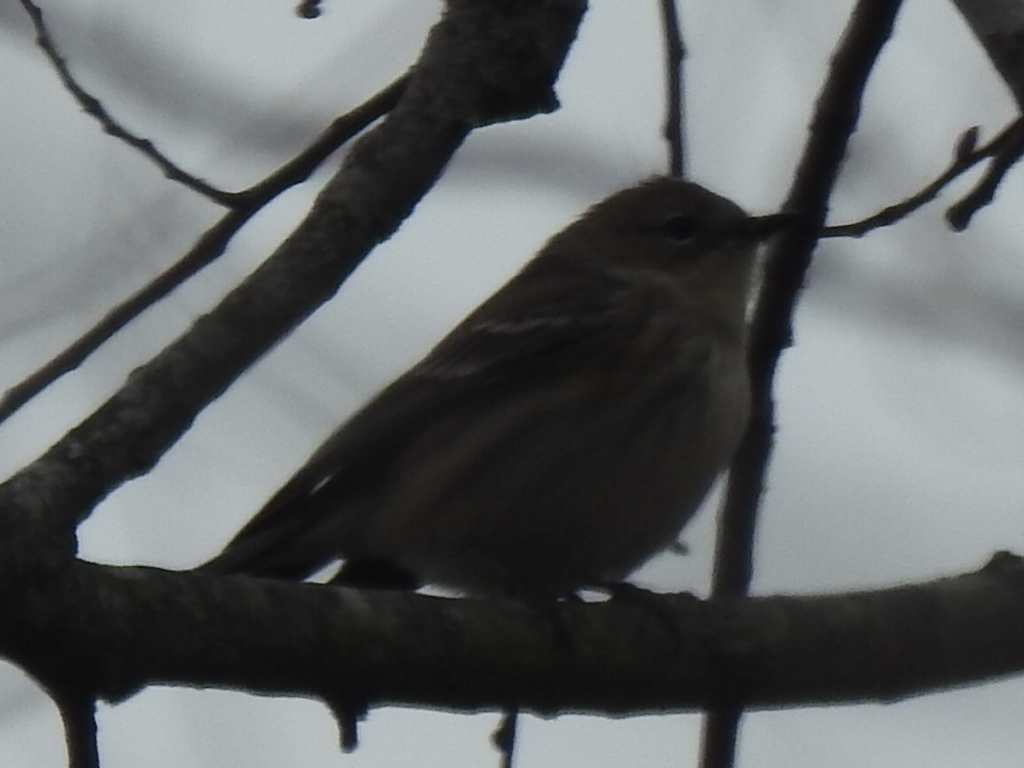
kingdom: Animalia
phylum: Chordata
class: Aves
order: Passeriformes
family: Parulidae
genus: Setophaga
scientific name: Setophaga coronata
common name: Myrtle warbler
